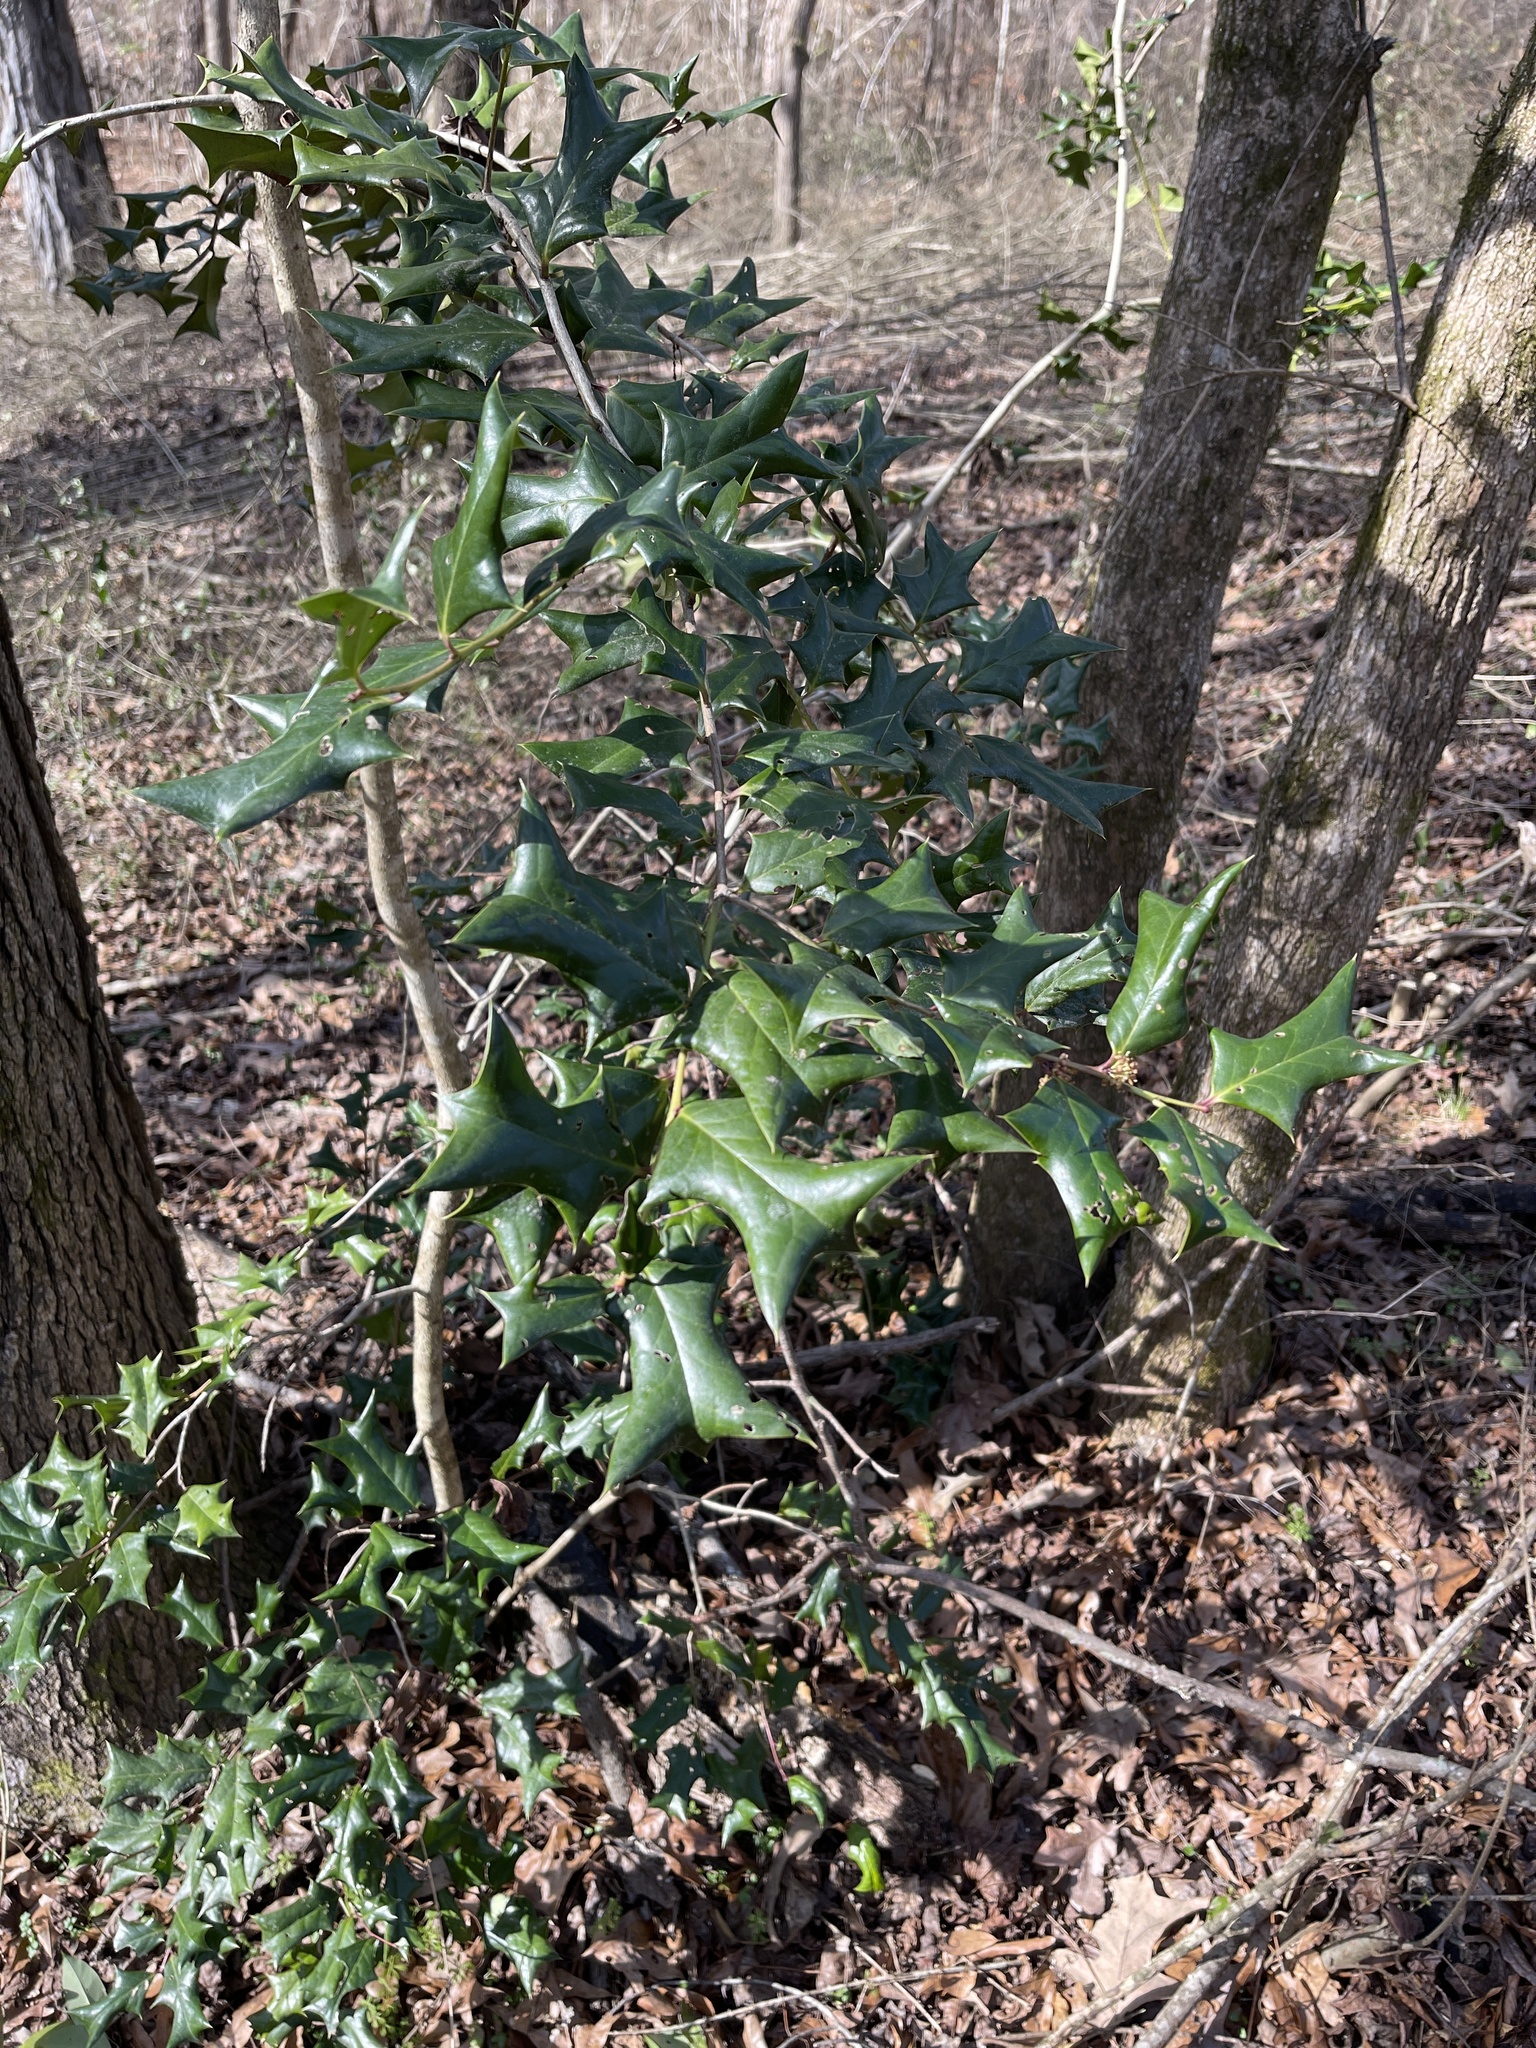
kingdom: Plantae
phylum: Tracheophyta
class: Magnoliopsida
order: Aquifoliales
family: Aquifoliaceae
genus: Ilex
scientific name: Ilex cornuta
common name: Chinese holly
